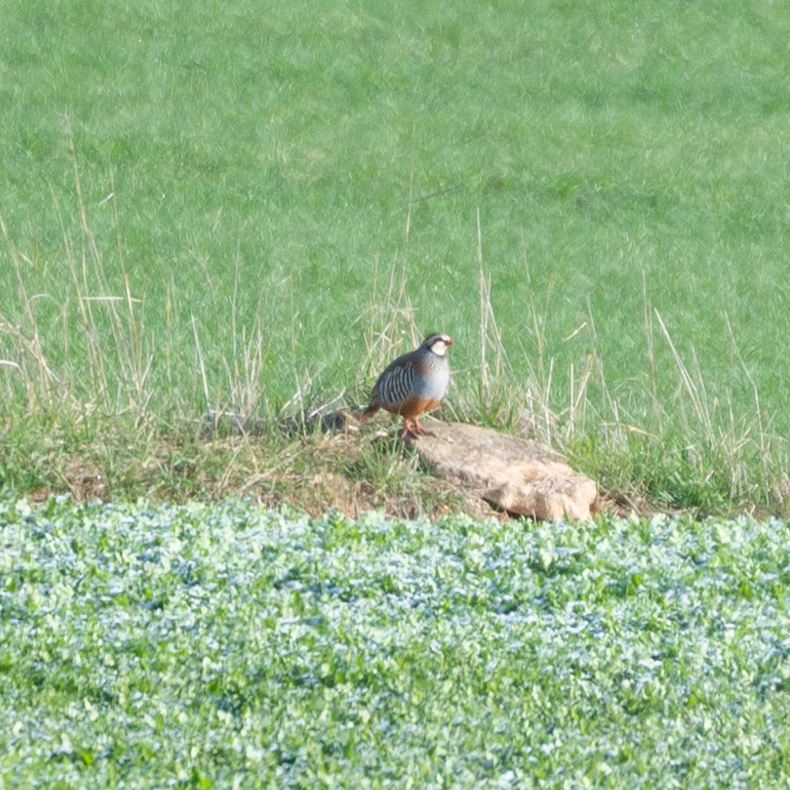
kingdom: Animalia
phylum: Chordata
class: Aves
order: Galliformes
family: Phasianidae
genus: Alectoris
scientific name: Alectoris rufa
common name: Red-legged partridge
